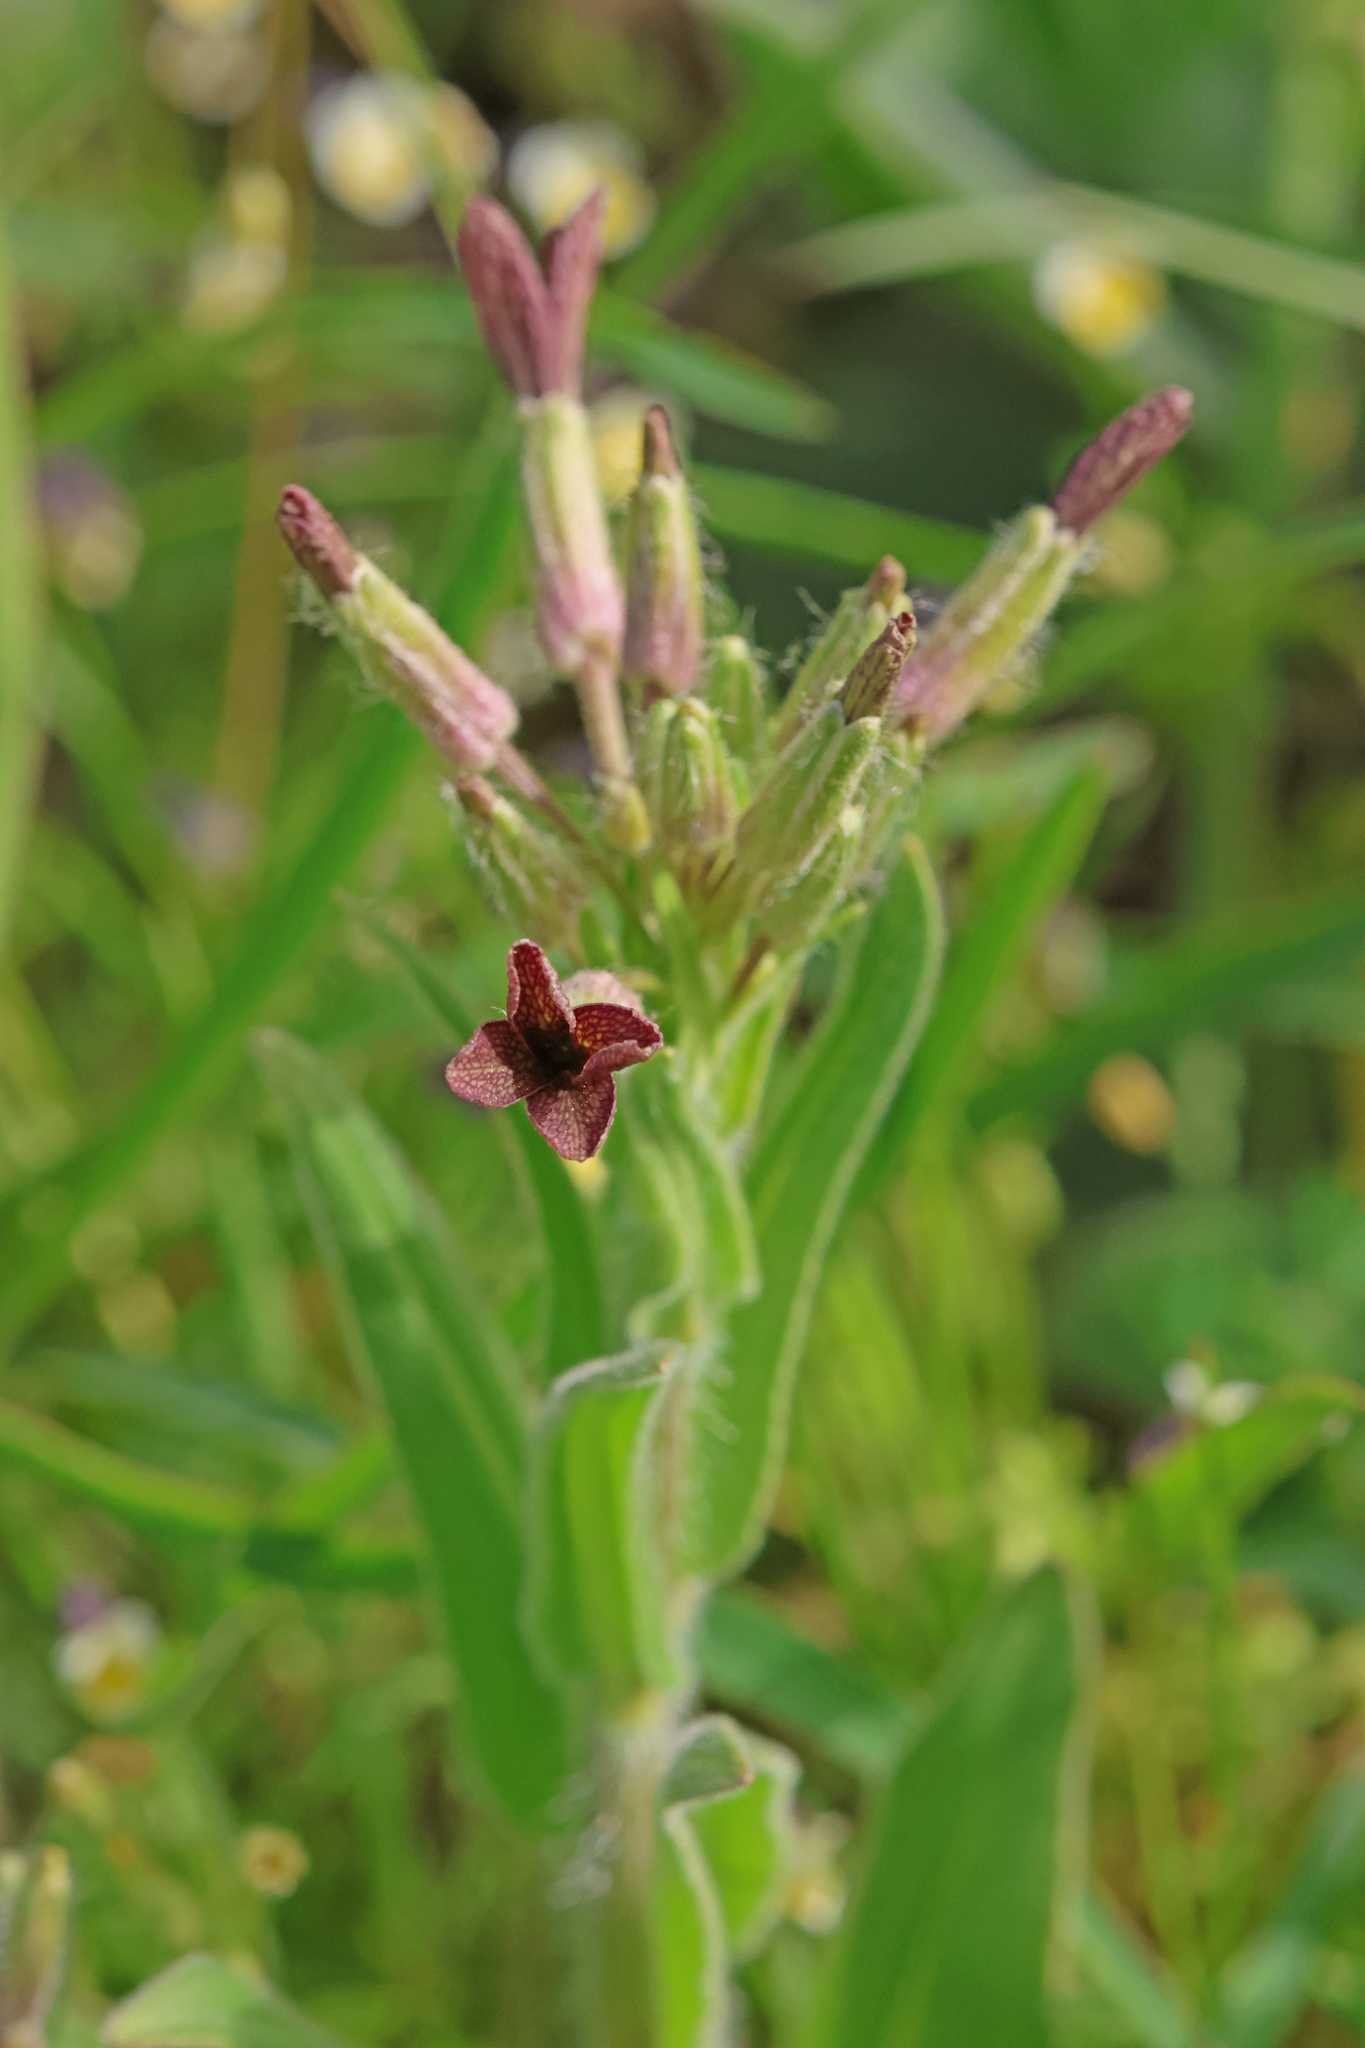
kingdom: Plantae
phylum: Tracheophyta
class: Magnoliopsida
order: Brassicales
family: Brassicaceae
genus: Hesperis
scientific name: Hesperis tristis
